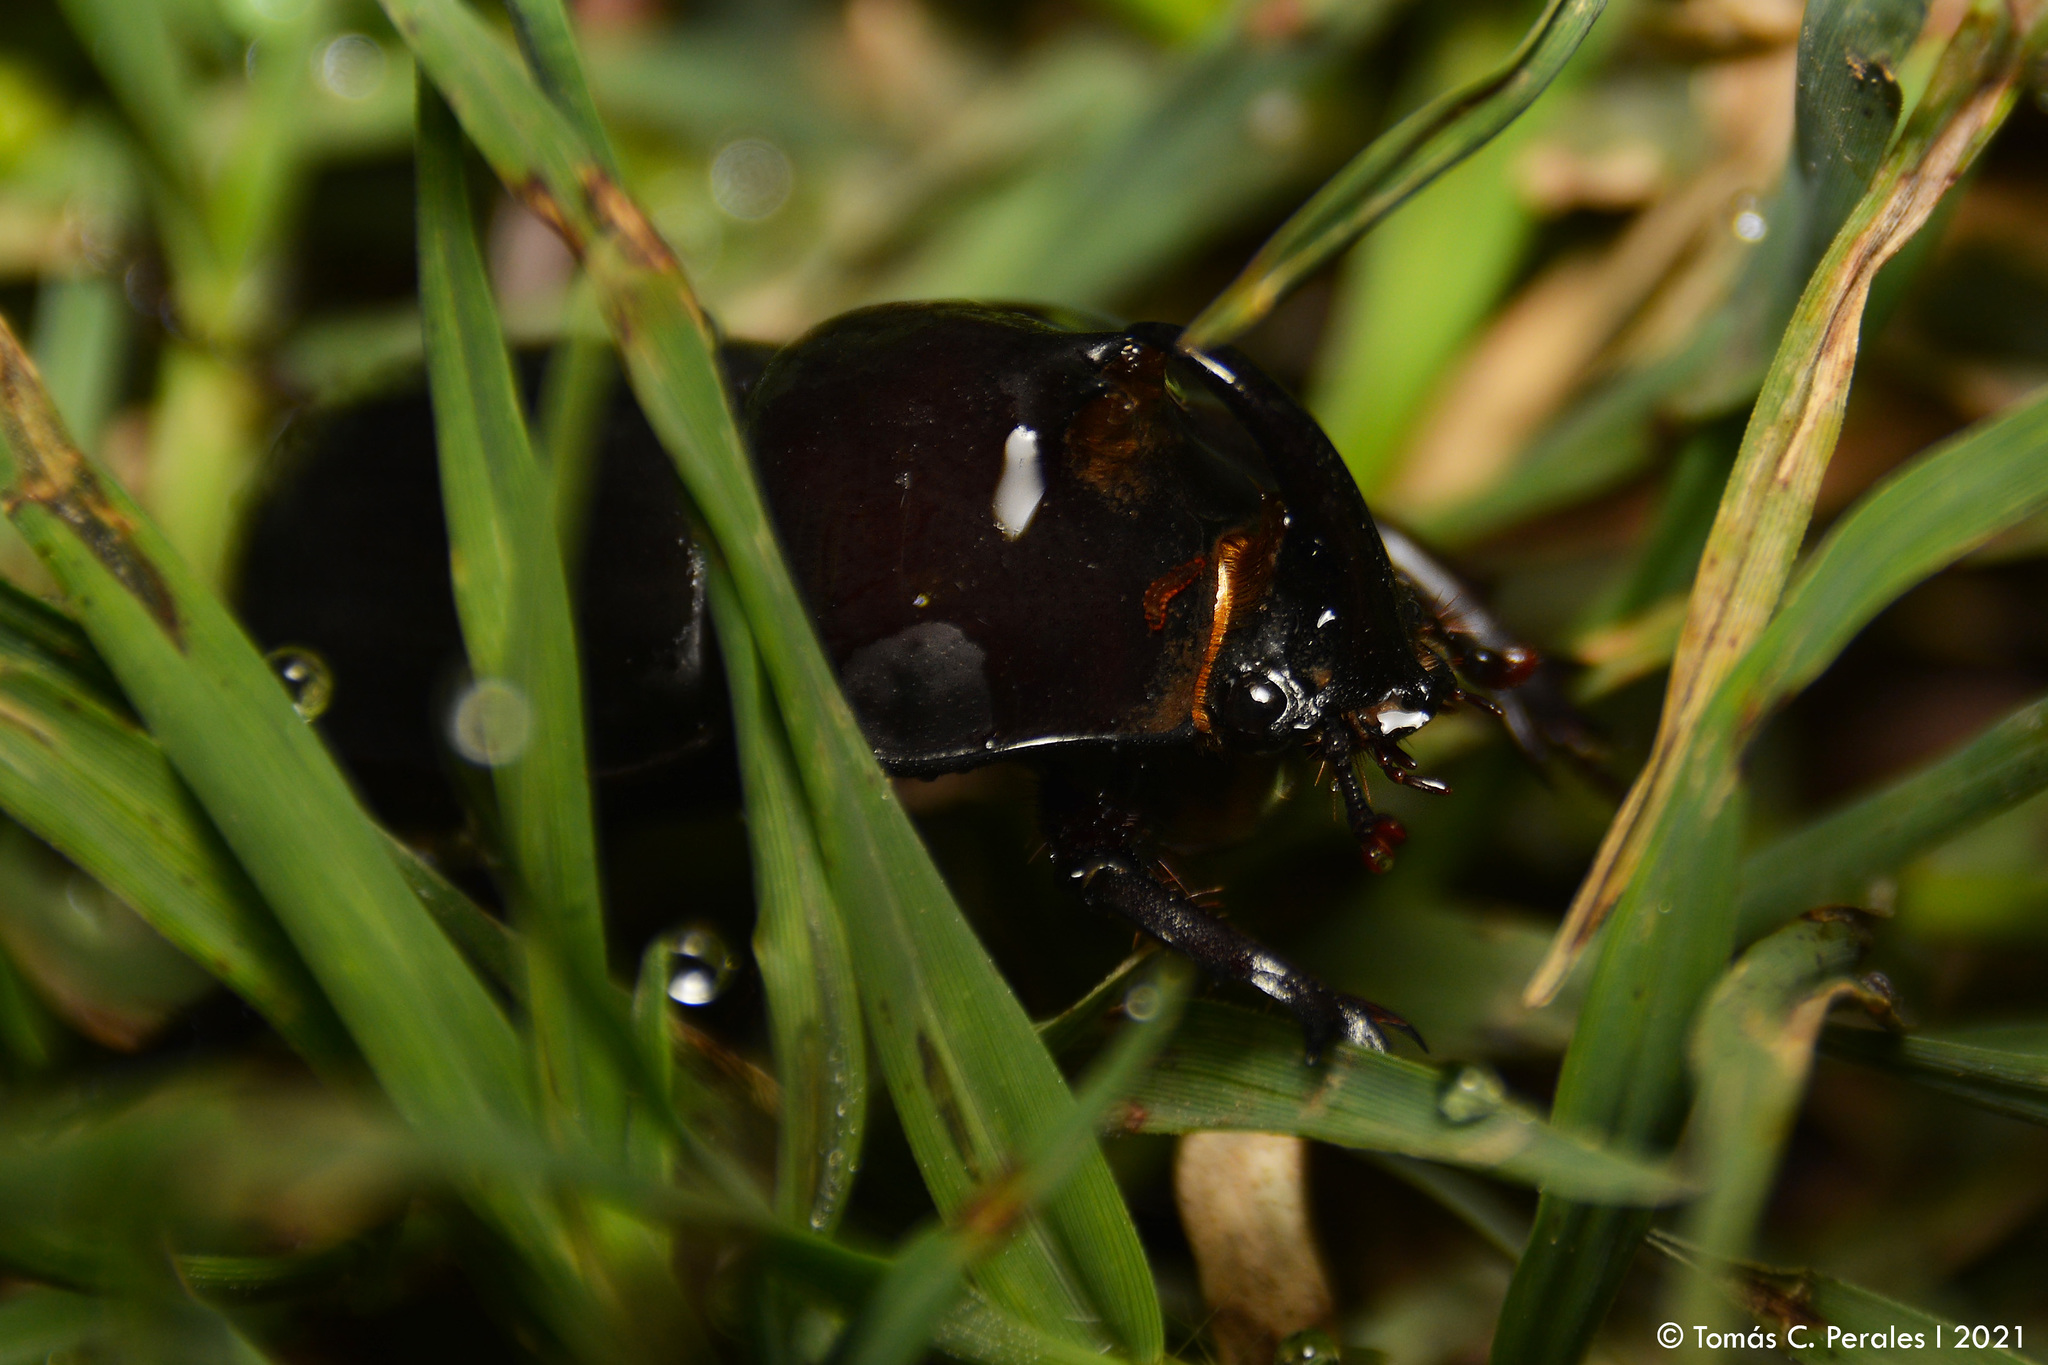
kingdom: Animalia
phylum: Arthropoda
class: Insecta
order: Coleoptera
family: Scarabaeidae
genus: Diloboderus
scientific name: Diloboderus abderus
